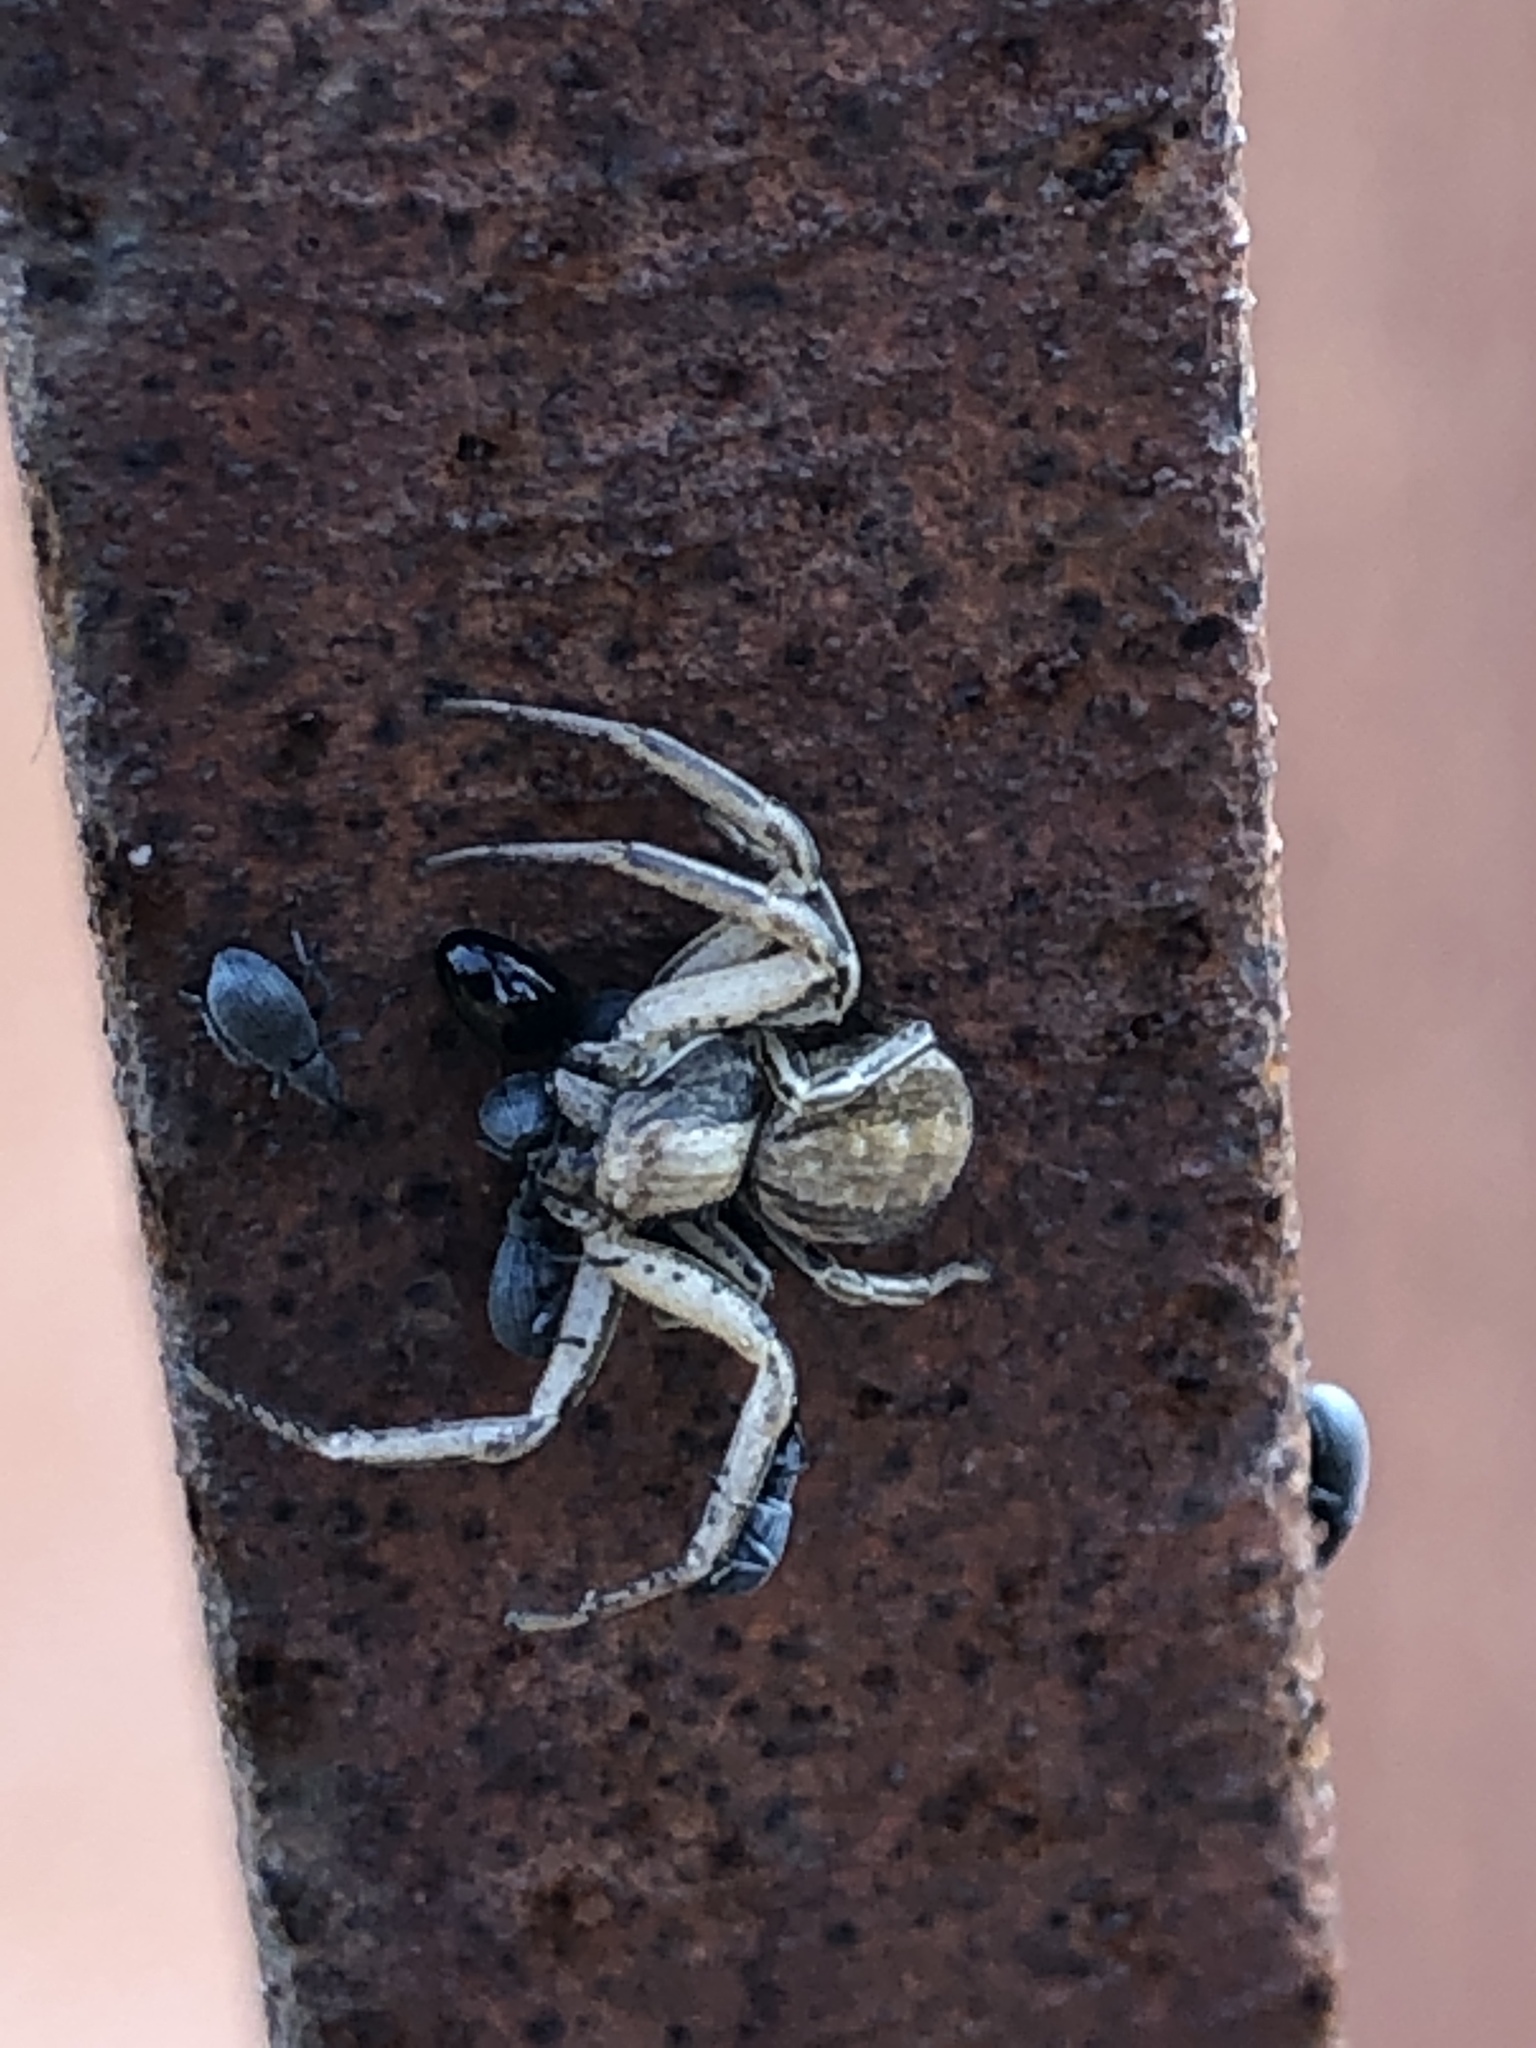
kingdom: Animalia
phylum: Arthropoda
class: Arachnida
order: Araneae
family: Thomisidae
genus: Spiracme
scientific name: Spiracme striatipes
